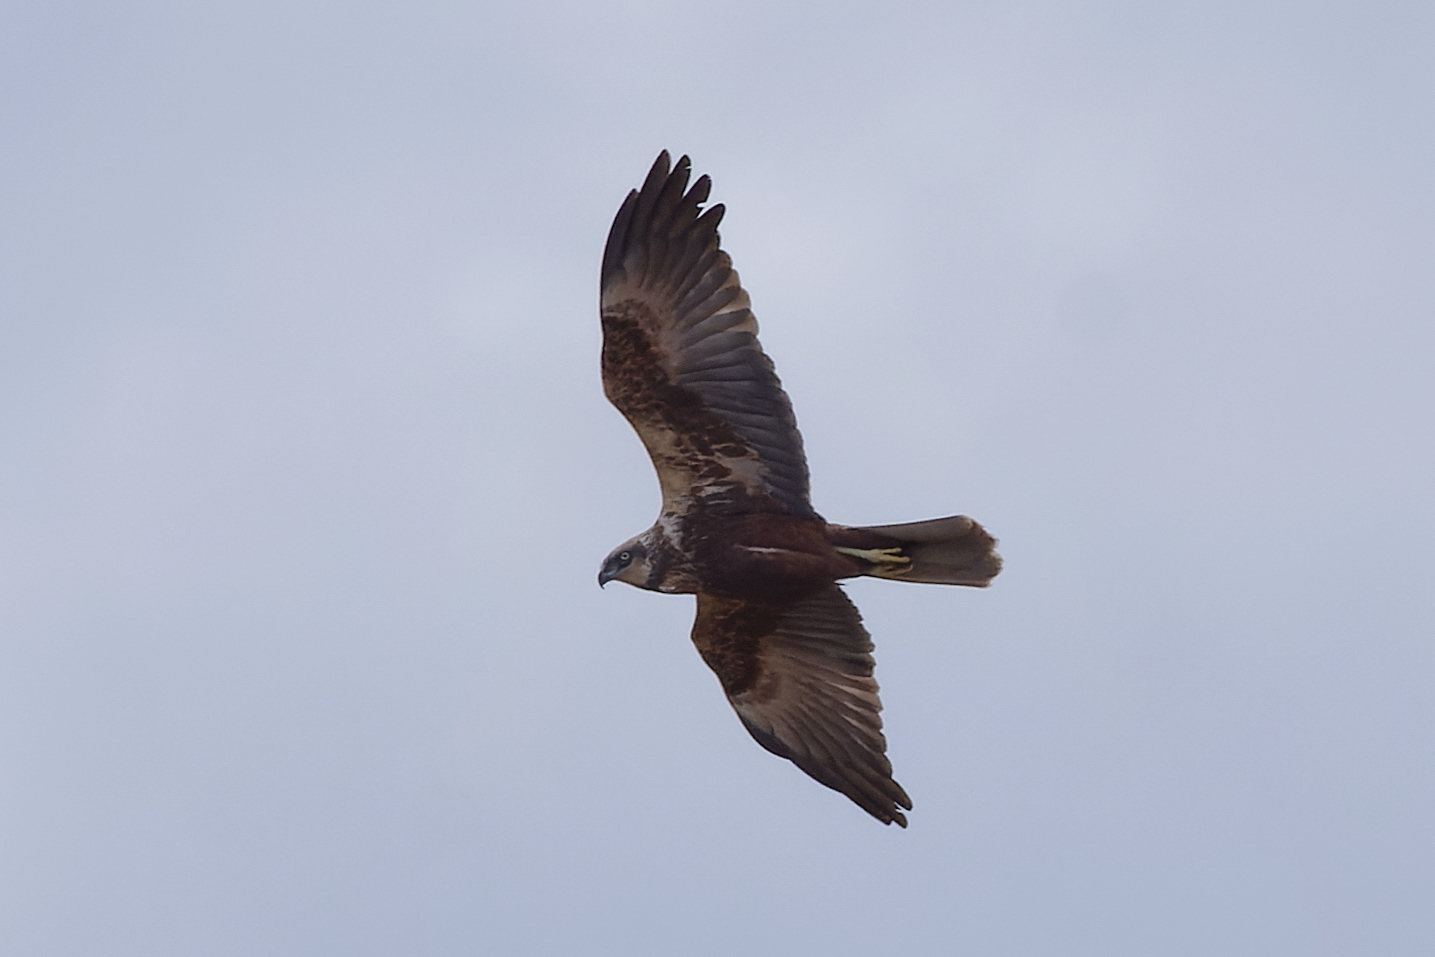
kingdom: Animalia
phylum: Chordata
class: Aves
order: Accipitriformes
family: Accipitridae
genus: Circus
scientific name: Circus aeruginosus
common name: Western marsh harrier
